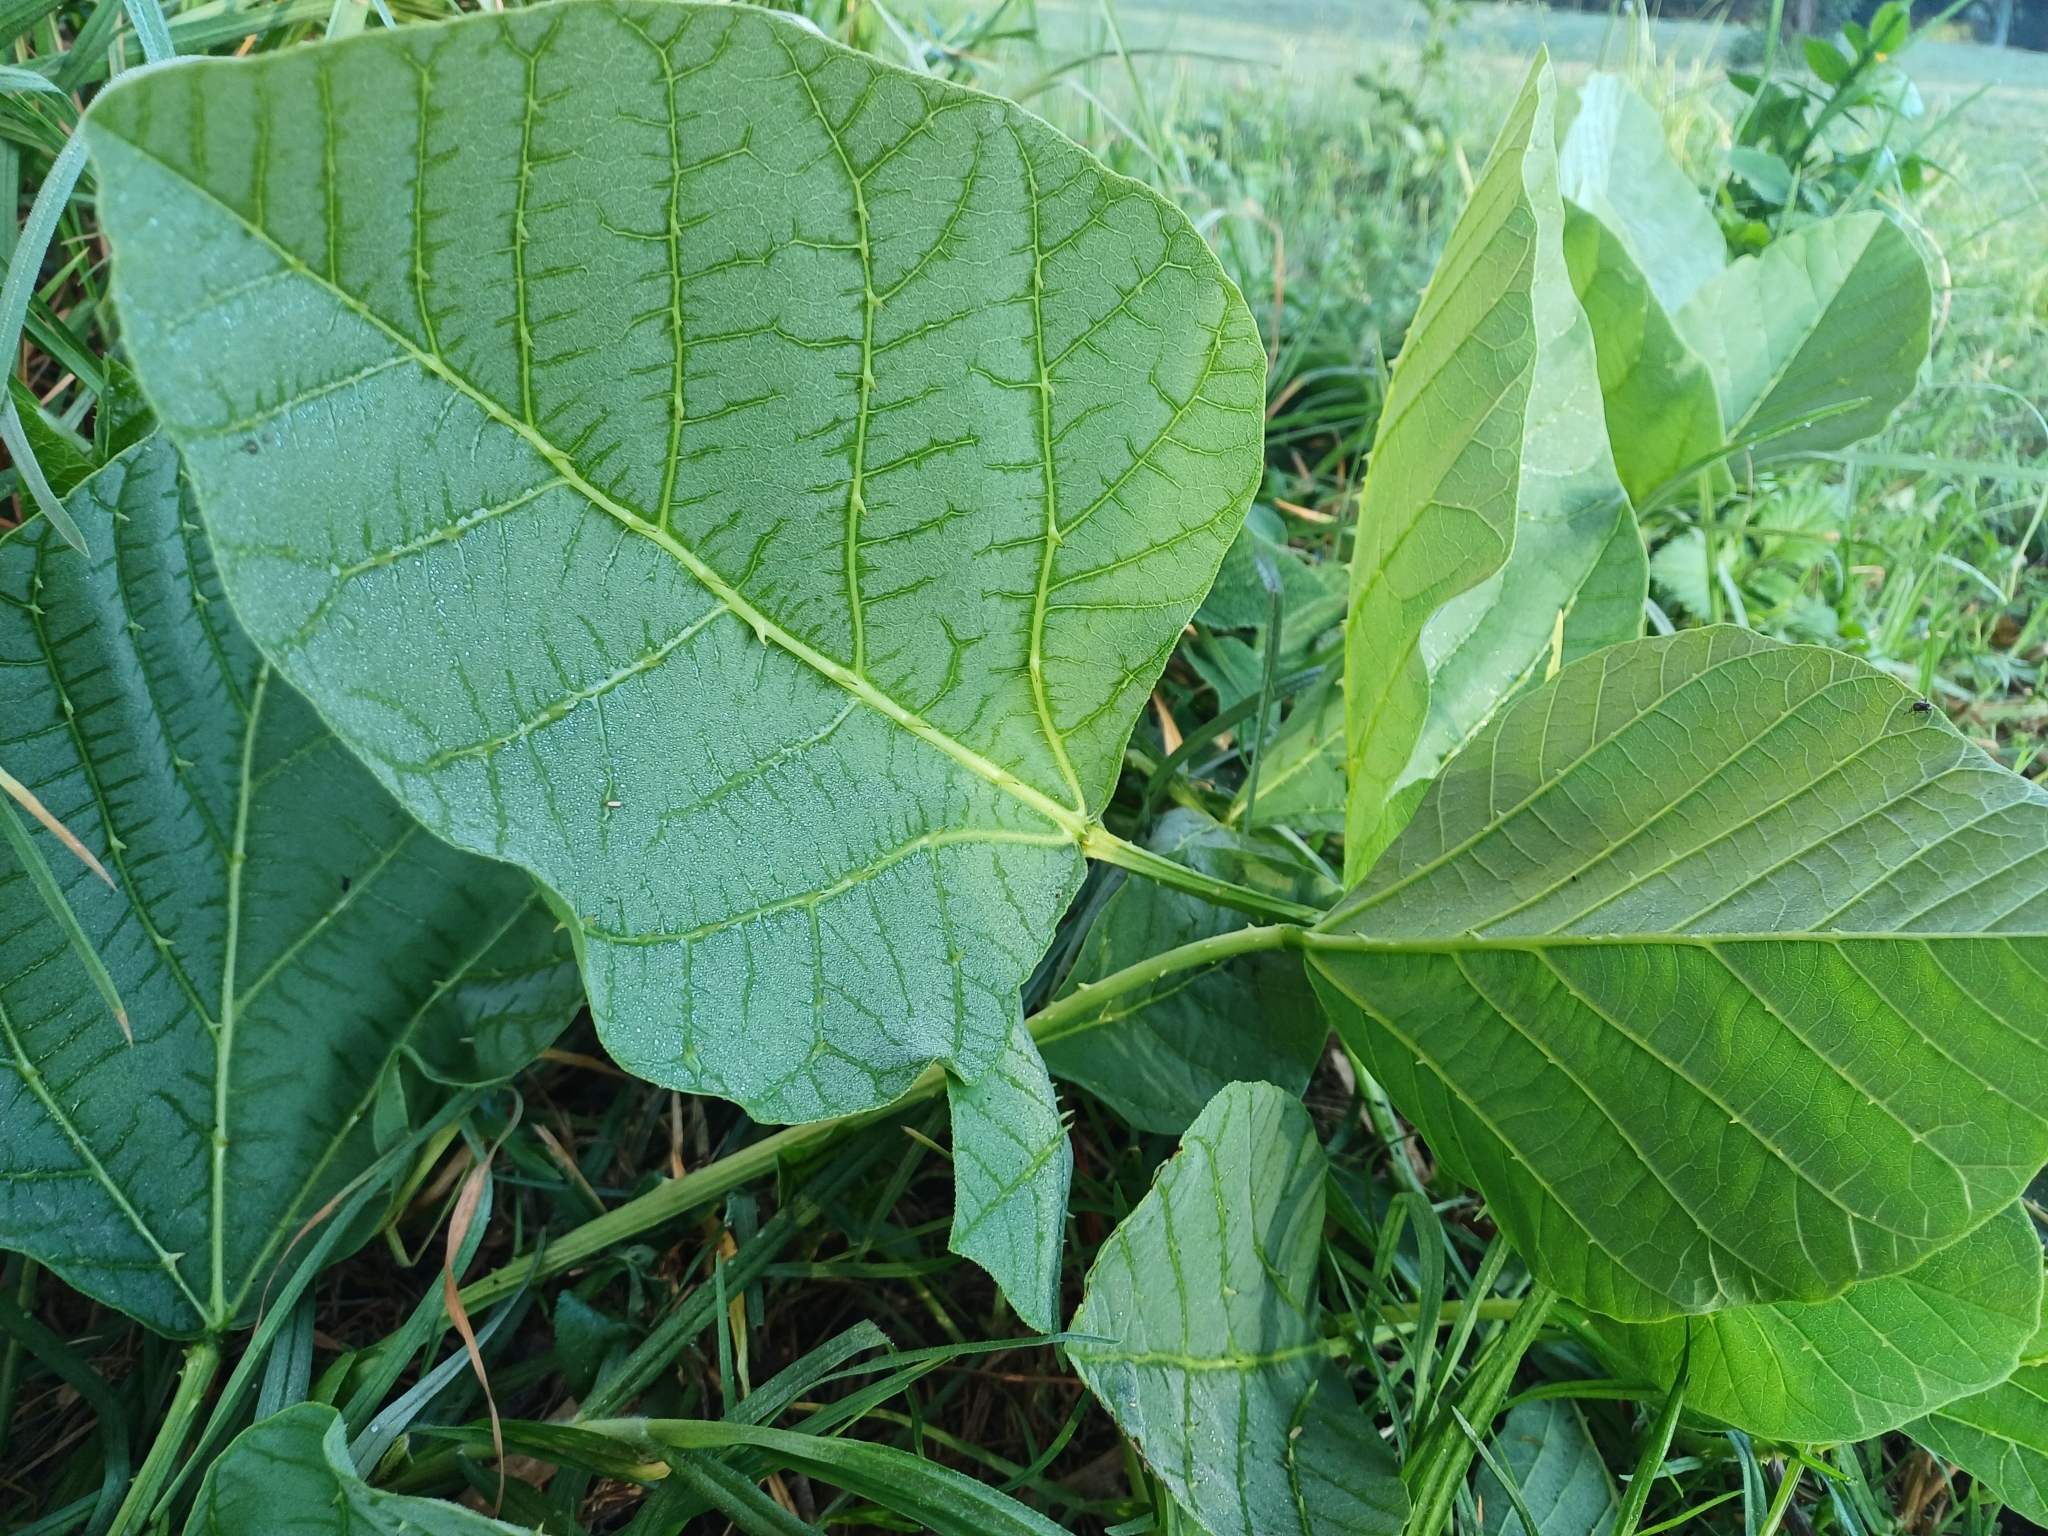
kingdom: Plantae
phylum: Tracheophyta
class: Magnoliopsida
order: Fabales
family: Fabaceae
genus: Erythrina
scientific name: Erythrina zeyheri
